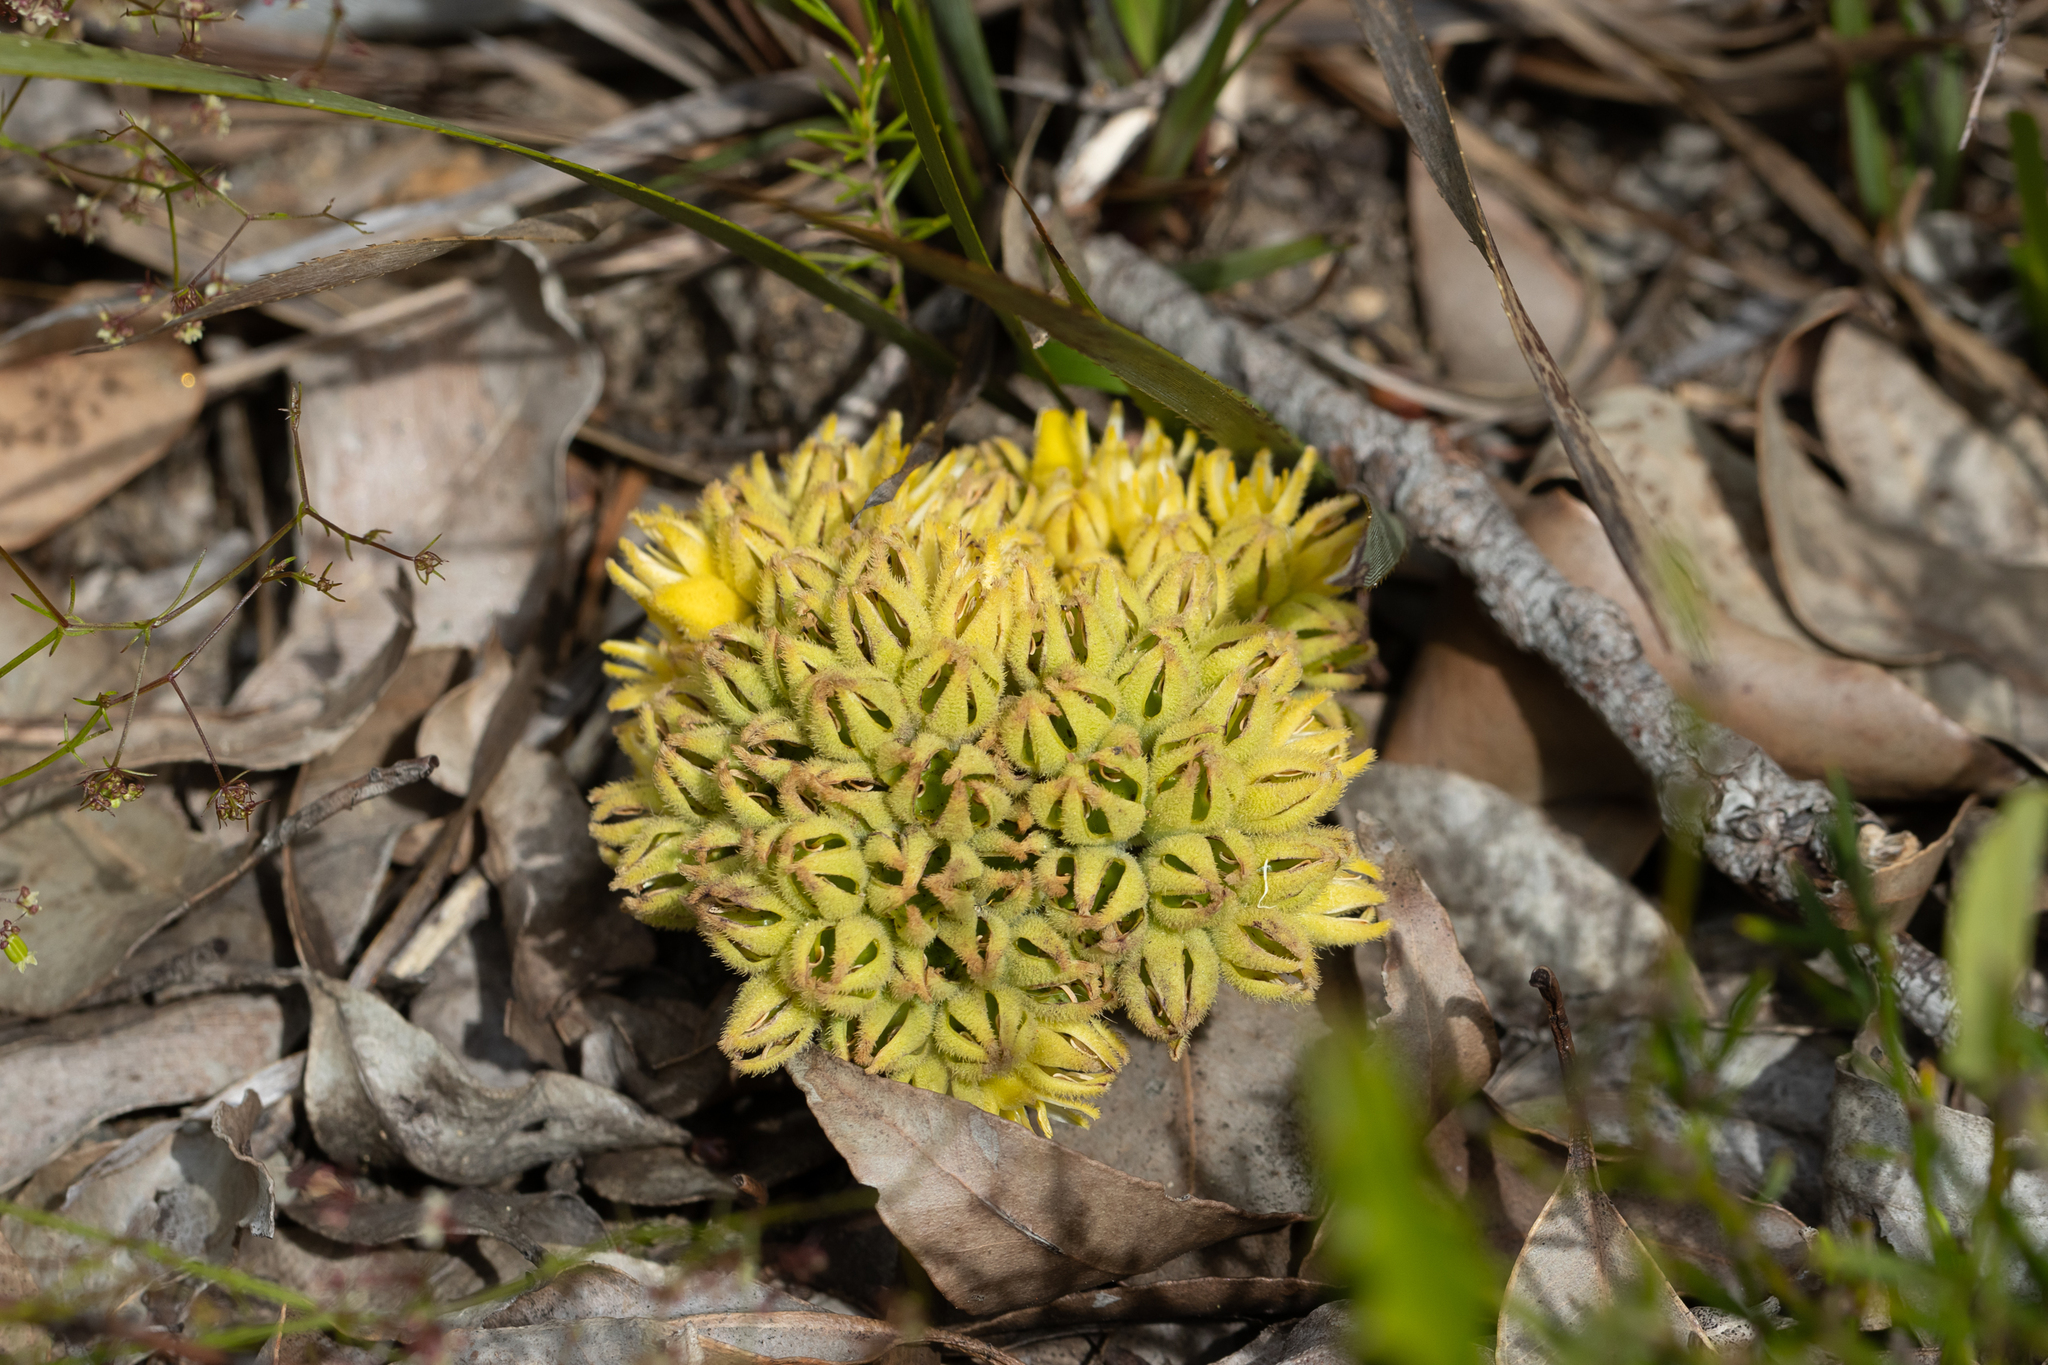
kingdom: Plantae
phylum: Tracheophyta
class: Liliopsida
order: Commelinales
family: Haemodoraceae
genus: Conostylis
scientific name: Conostylis aculeata
